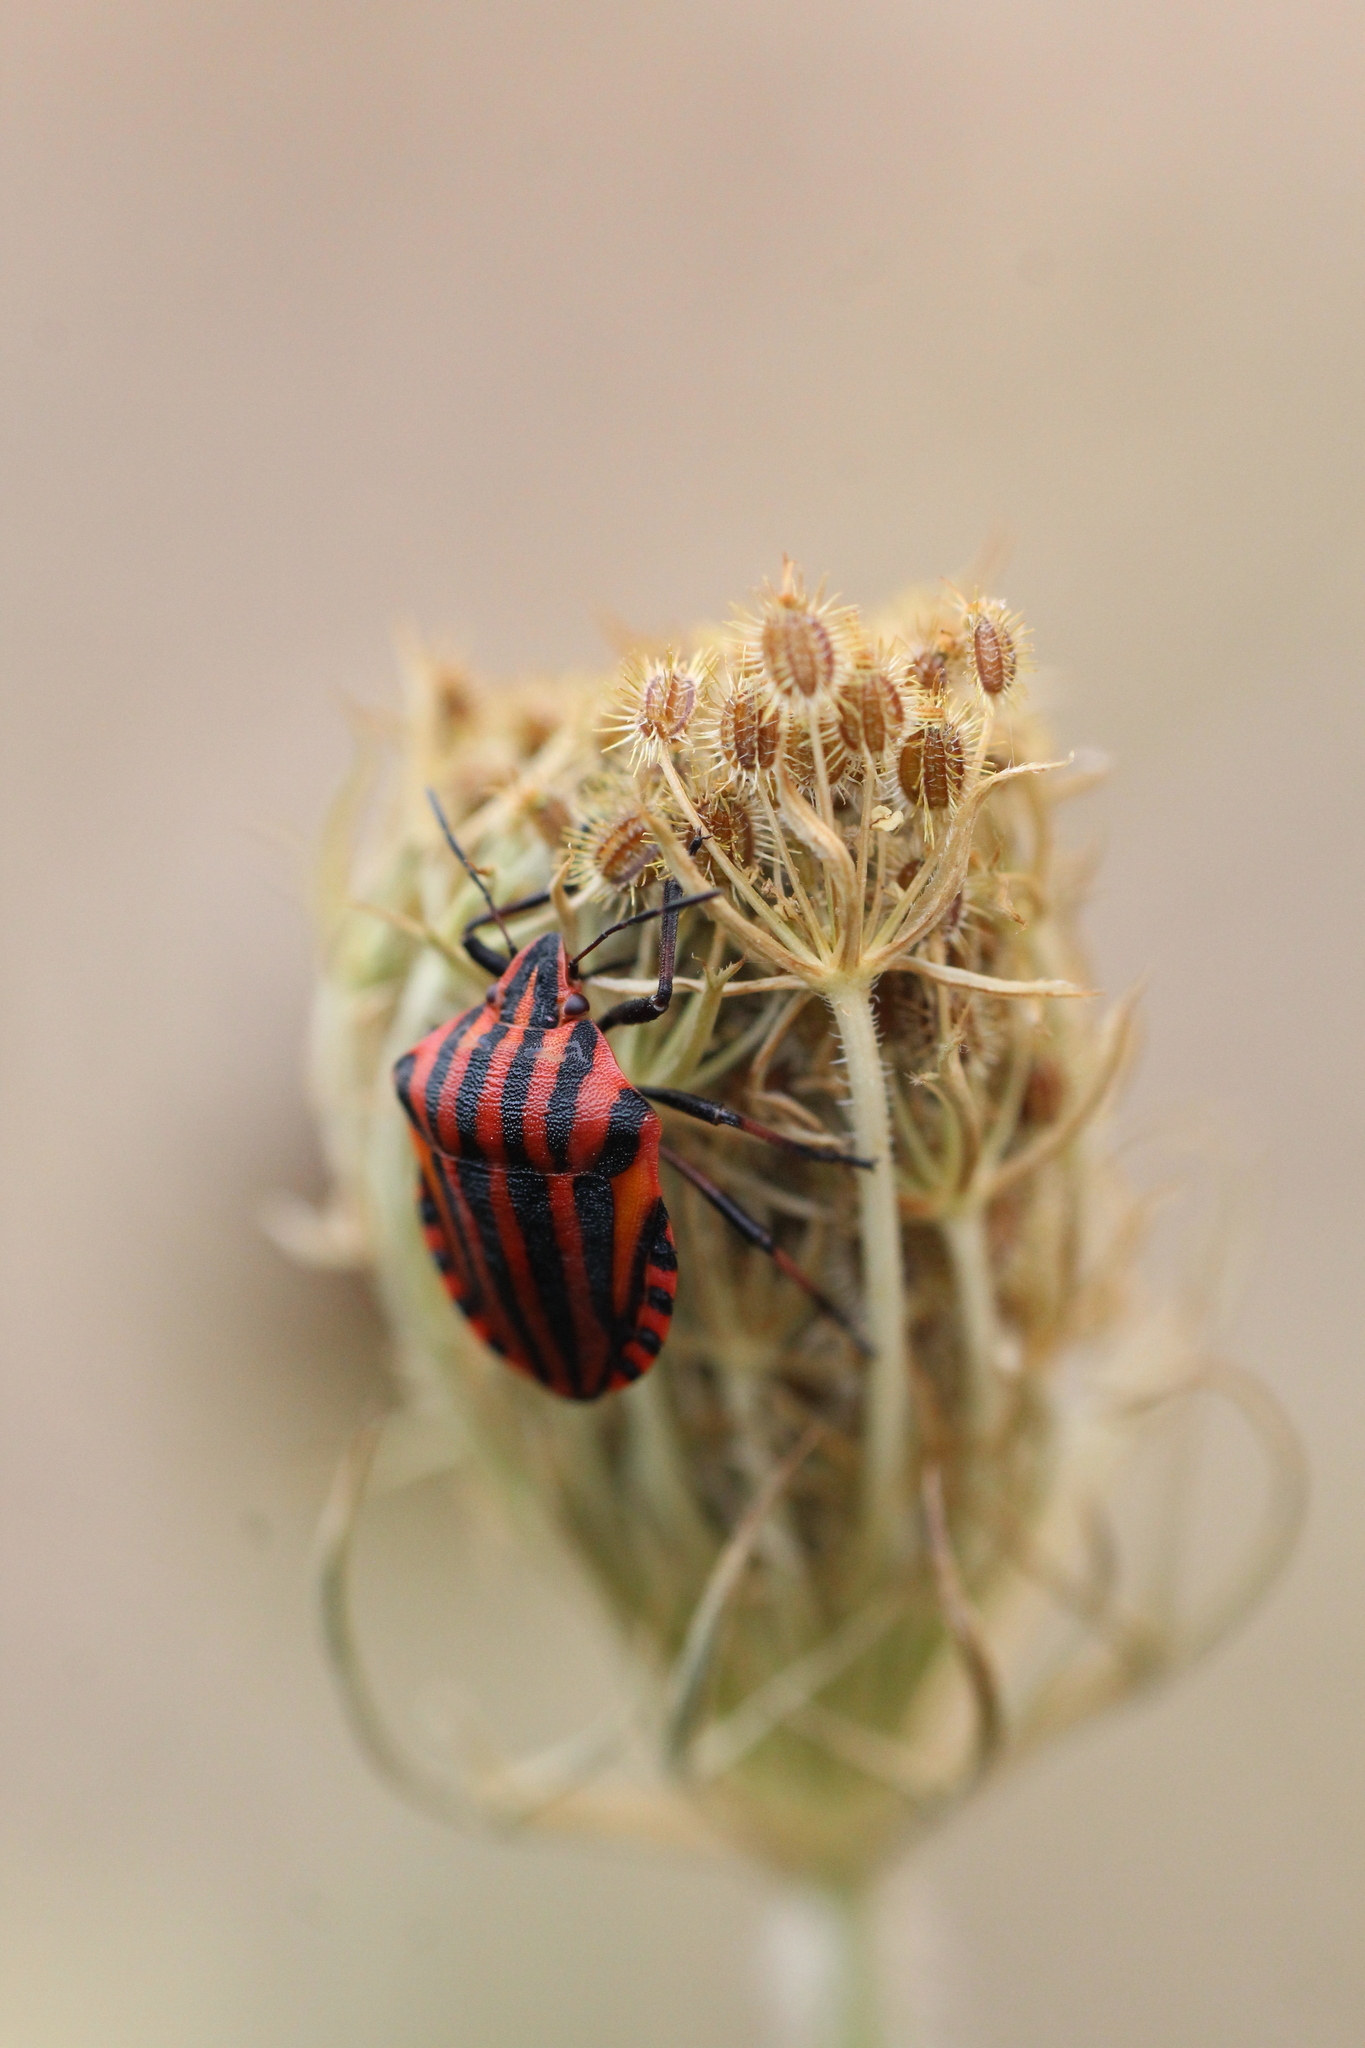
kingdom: Animalia
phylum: Arthropoda
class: Insecta
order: Hemiptera
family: Pentatomidae
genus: Graphosoma
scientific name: Graphosoma italicum
